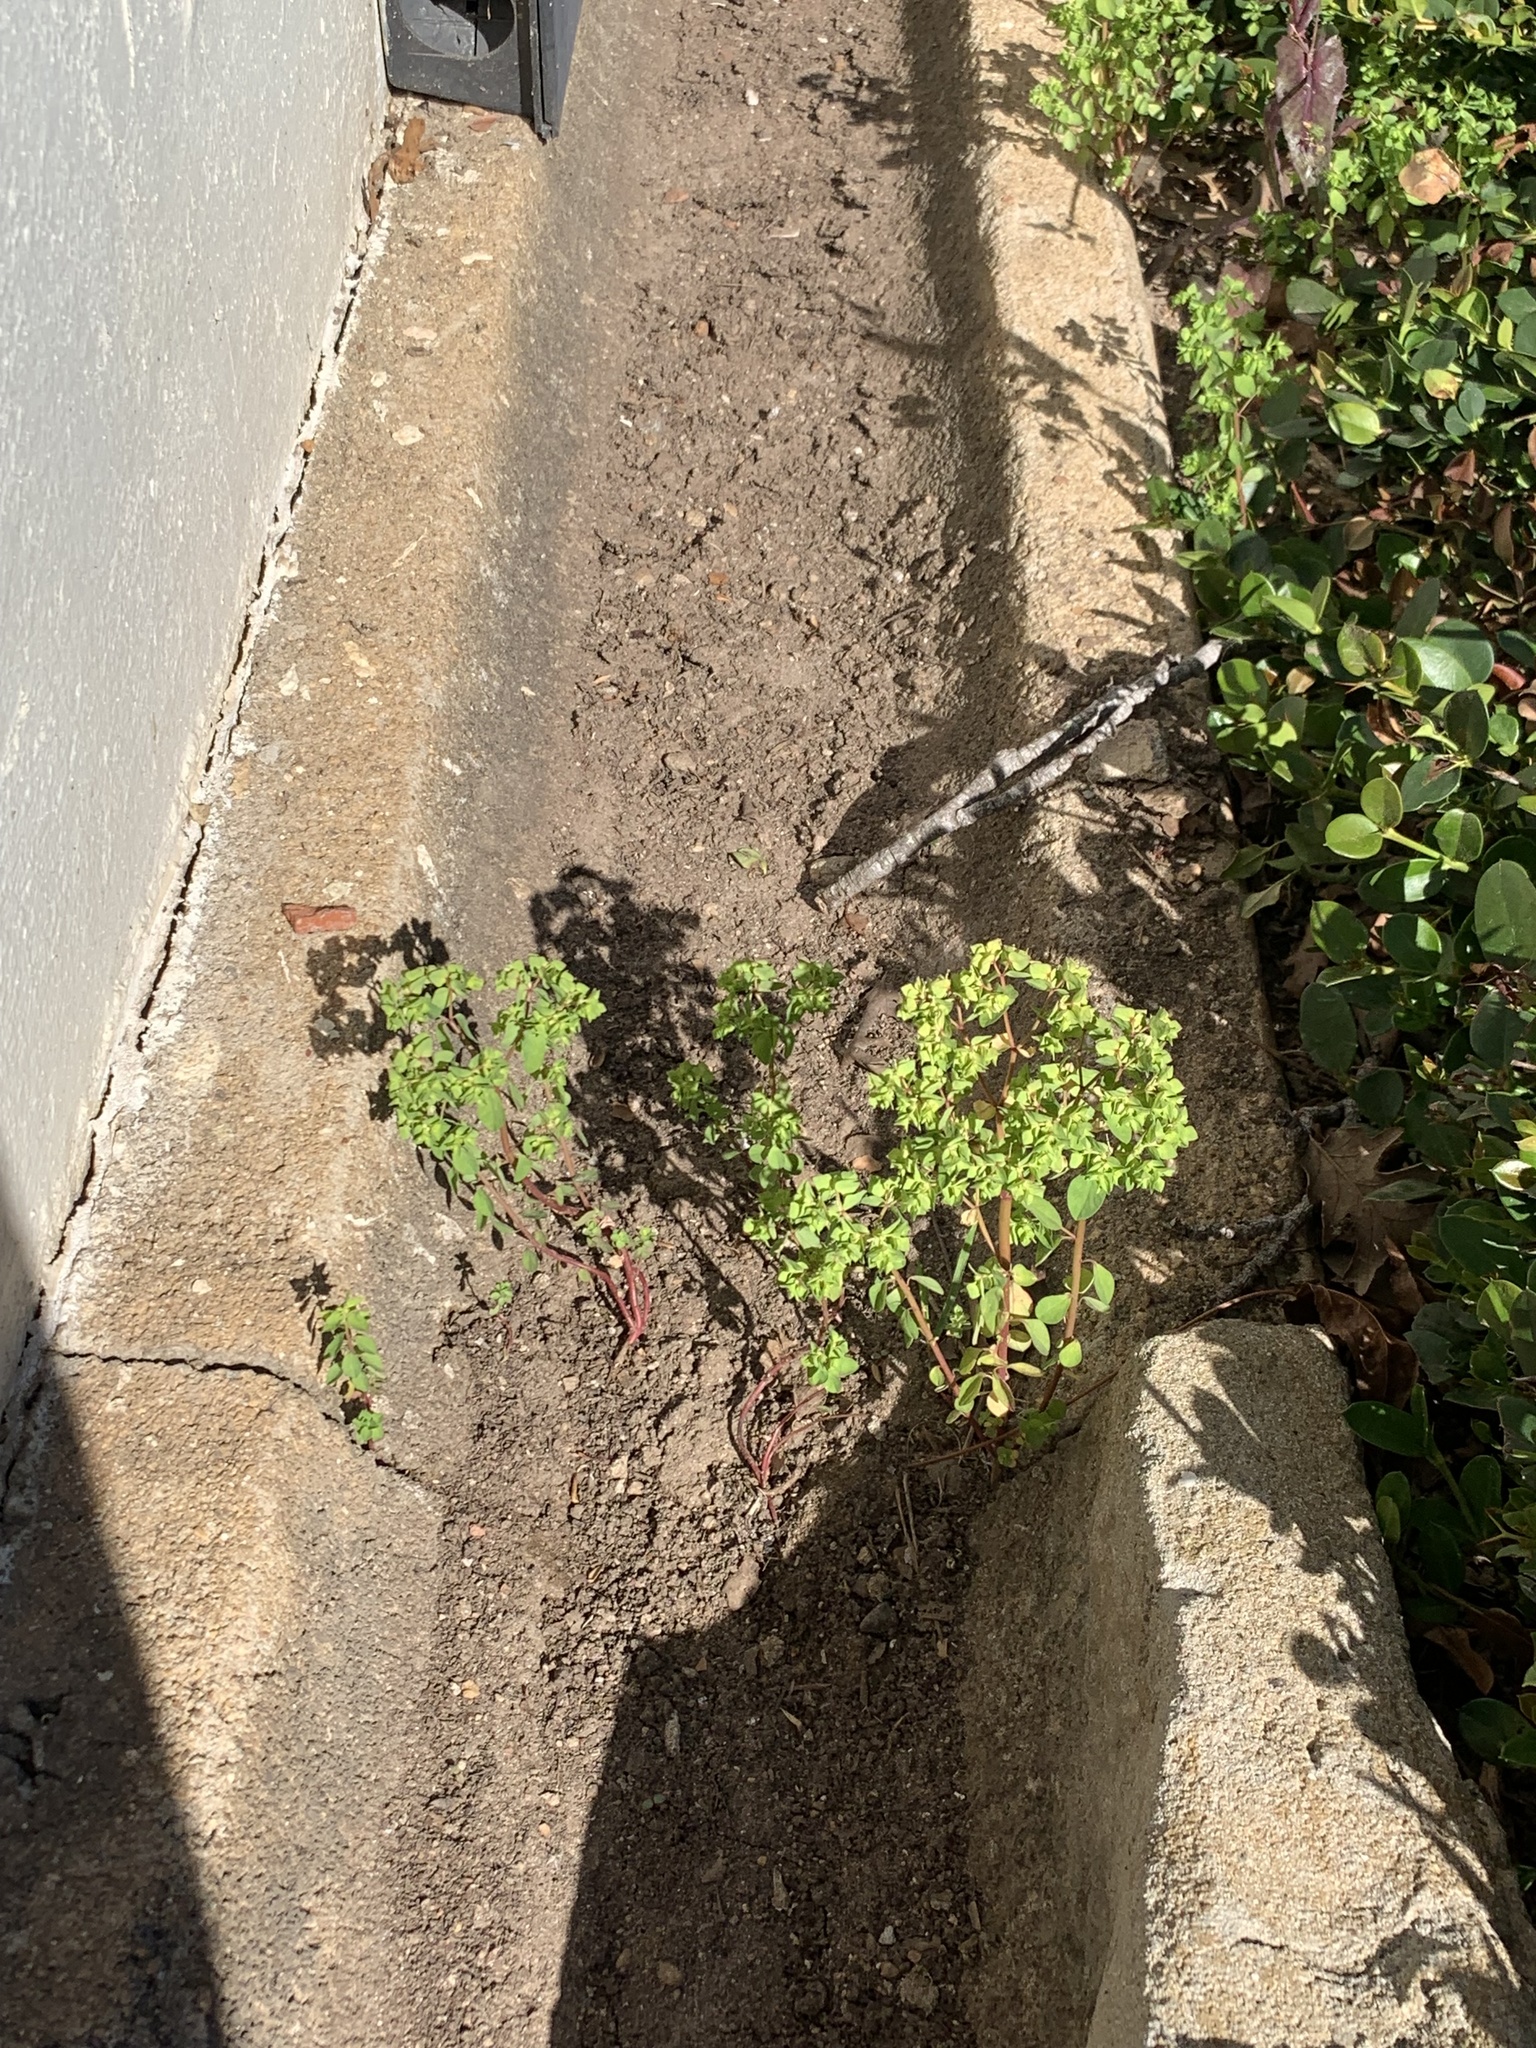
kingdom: Plantae
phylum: Tracheophyta
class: Magnoliopsida
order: Malpighiales
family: Euphorbiaceae
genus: Euphorbia
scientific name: Euphorbia peplus
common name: Petty spurge
